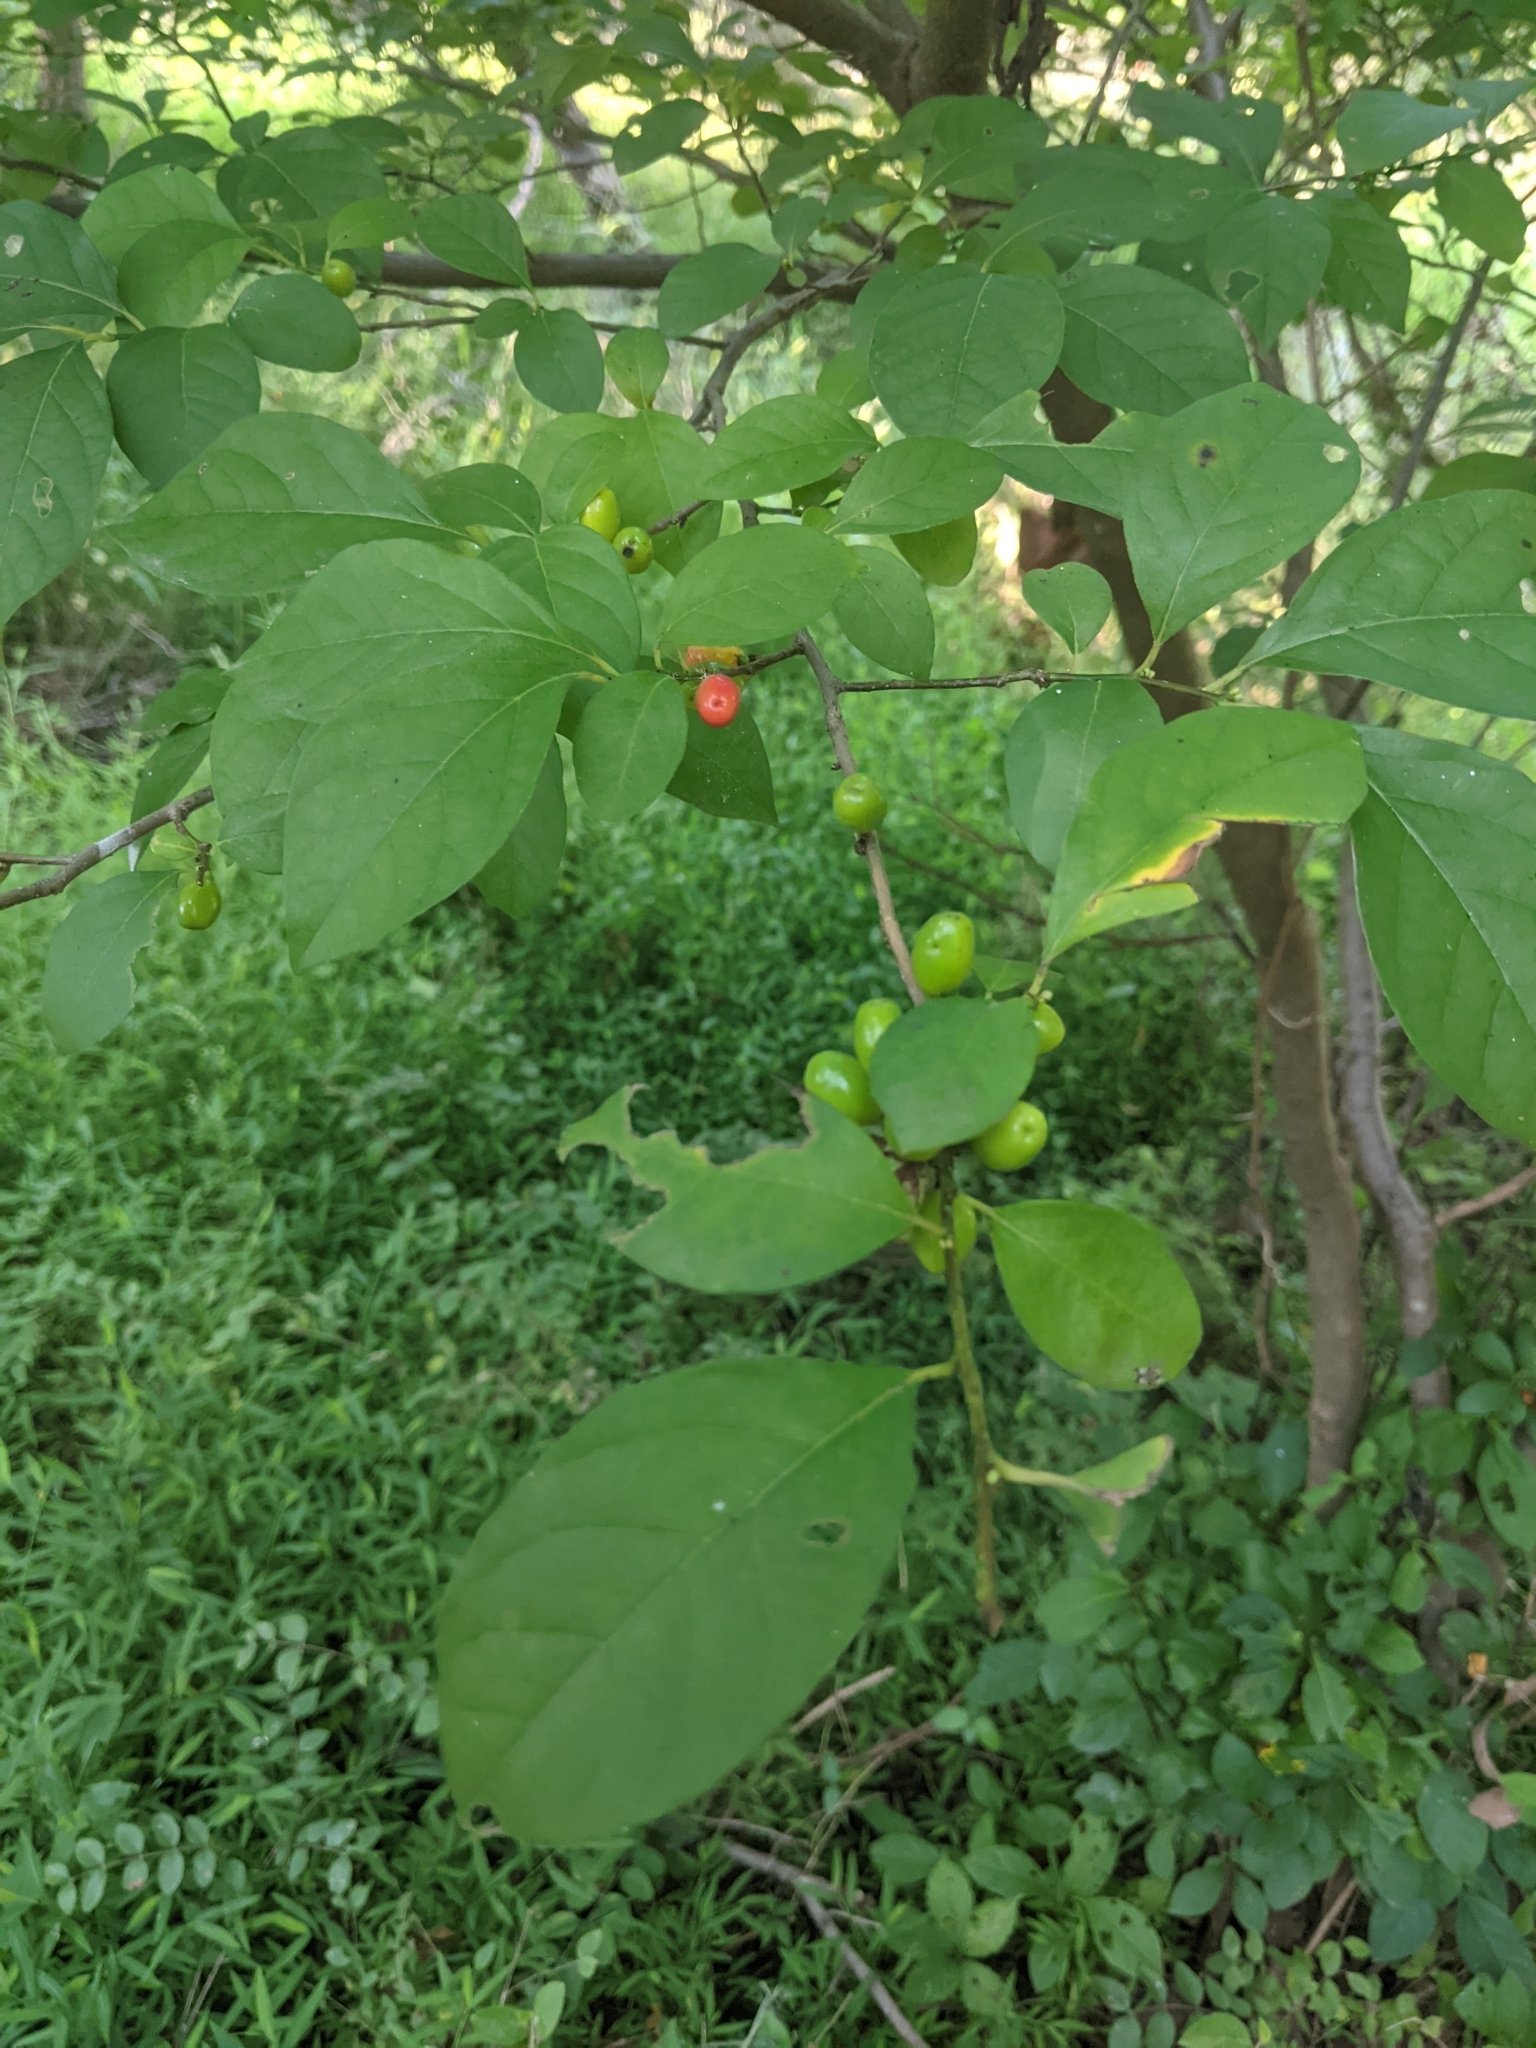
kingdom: Plantae
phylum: Tracheophyta
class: Magnoliopsida
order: Laurales
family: Lauraceae
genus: Lindera
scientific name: Lindera benzoin
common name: Spicebush
